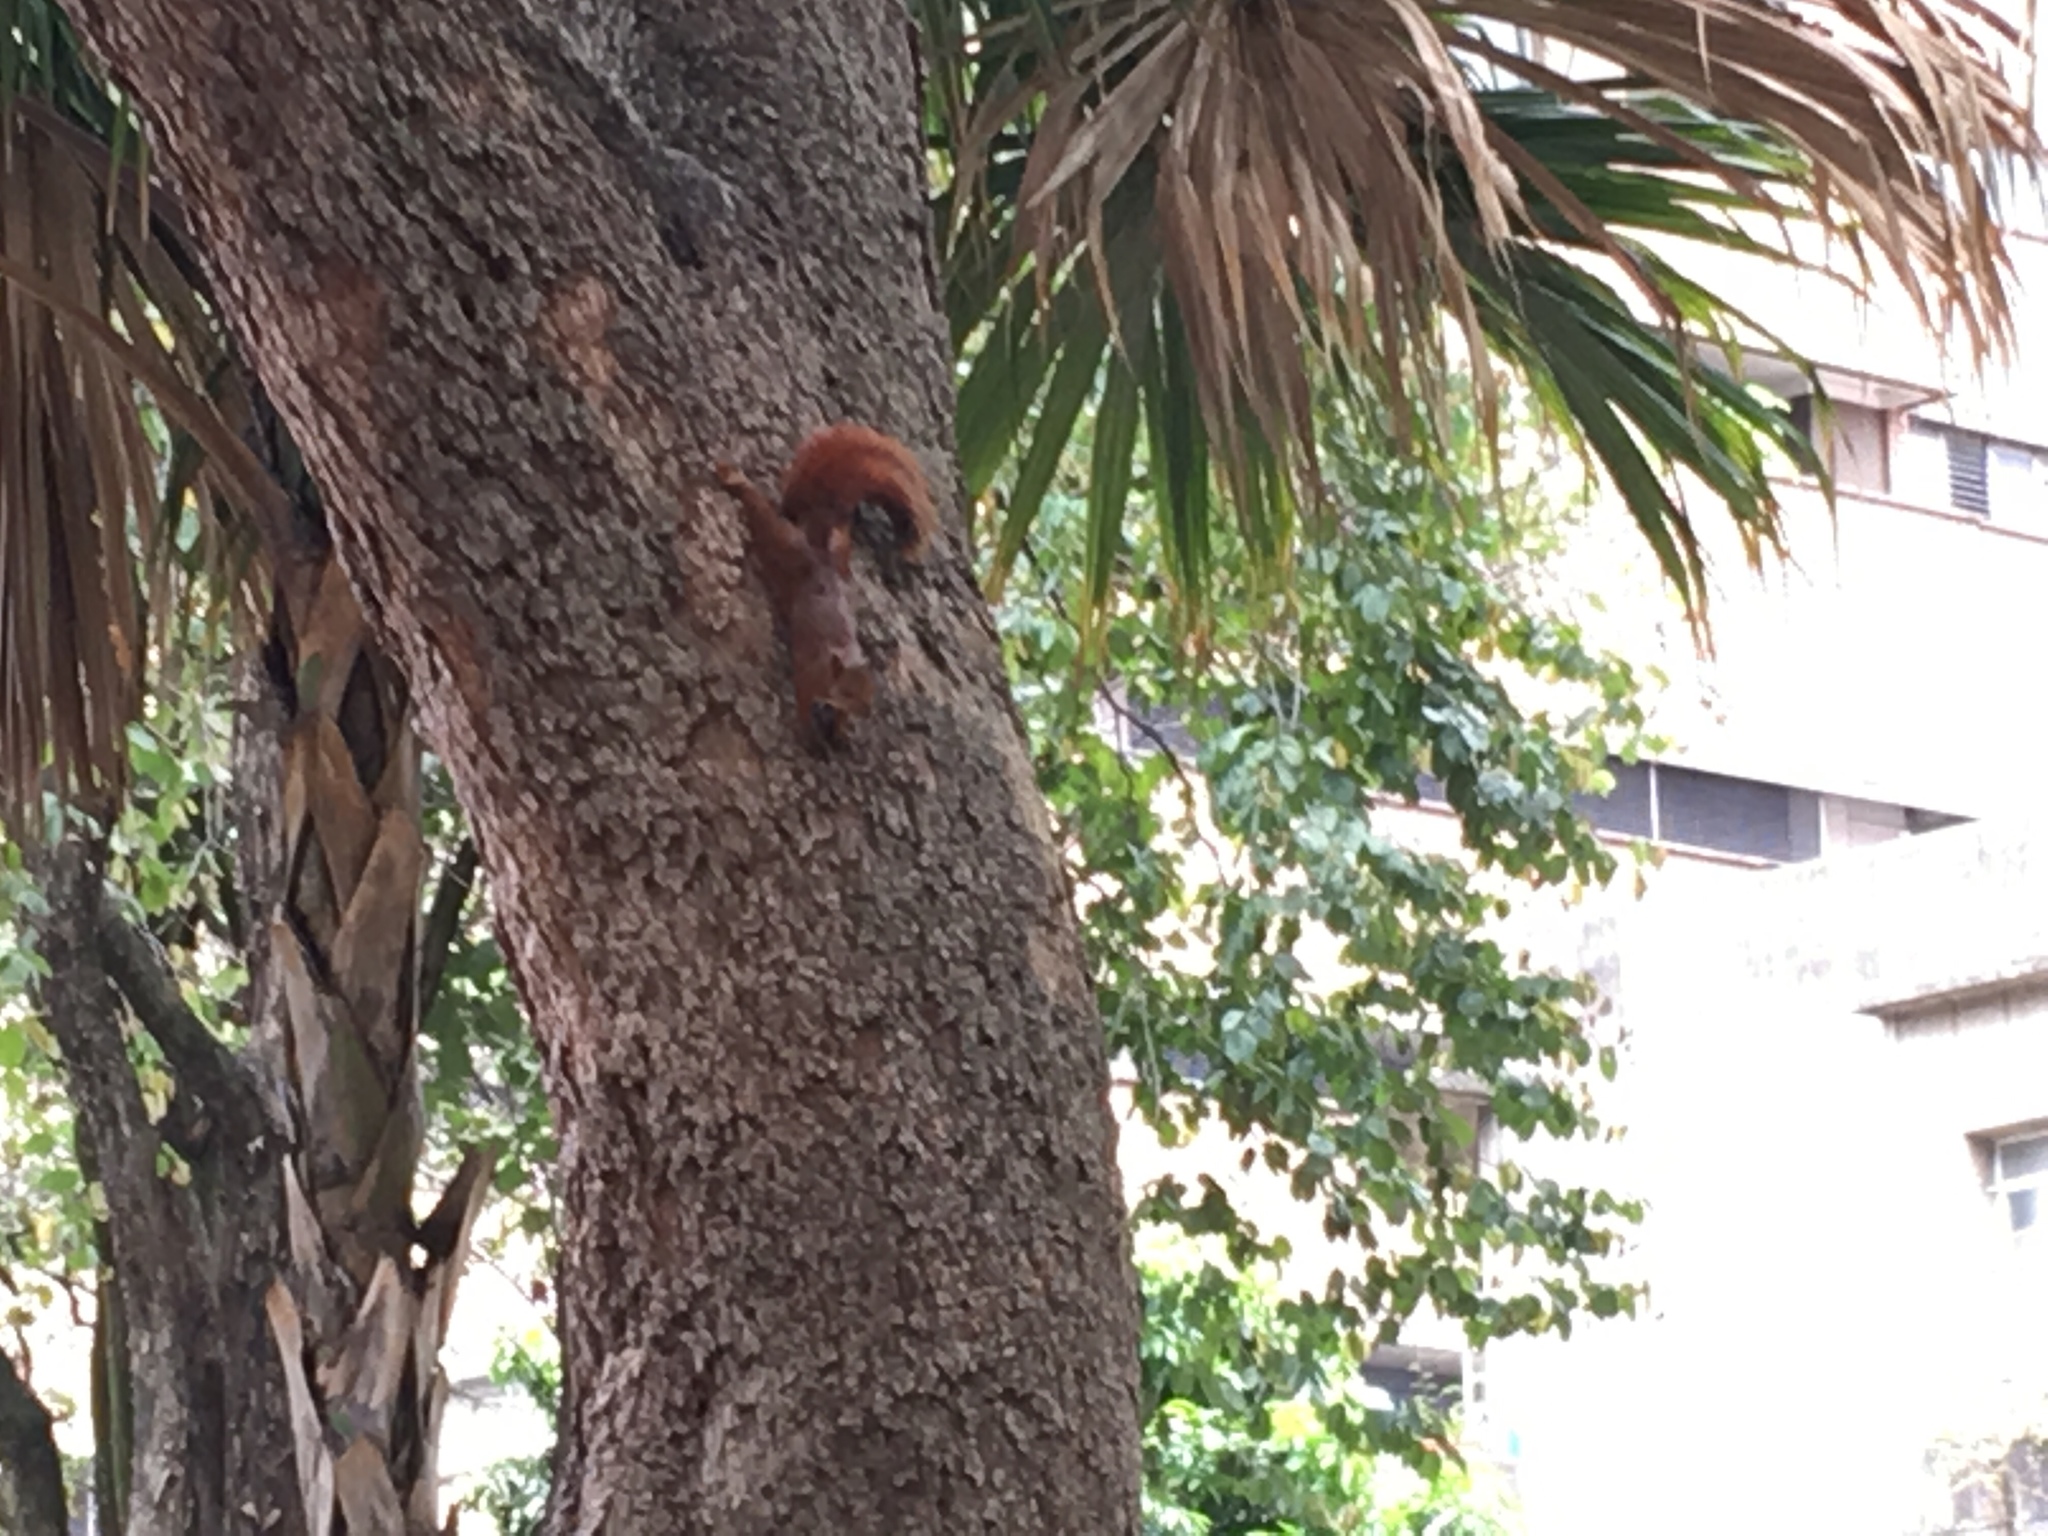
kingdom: Animalia
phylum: Chordata
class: Mammalia
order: Rodentia
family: Sciuridae
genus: Sciurus
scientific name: Sciurus granatensis
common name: Red-tailed squirrel
